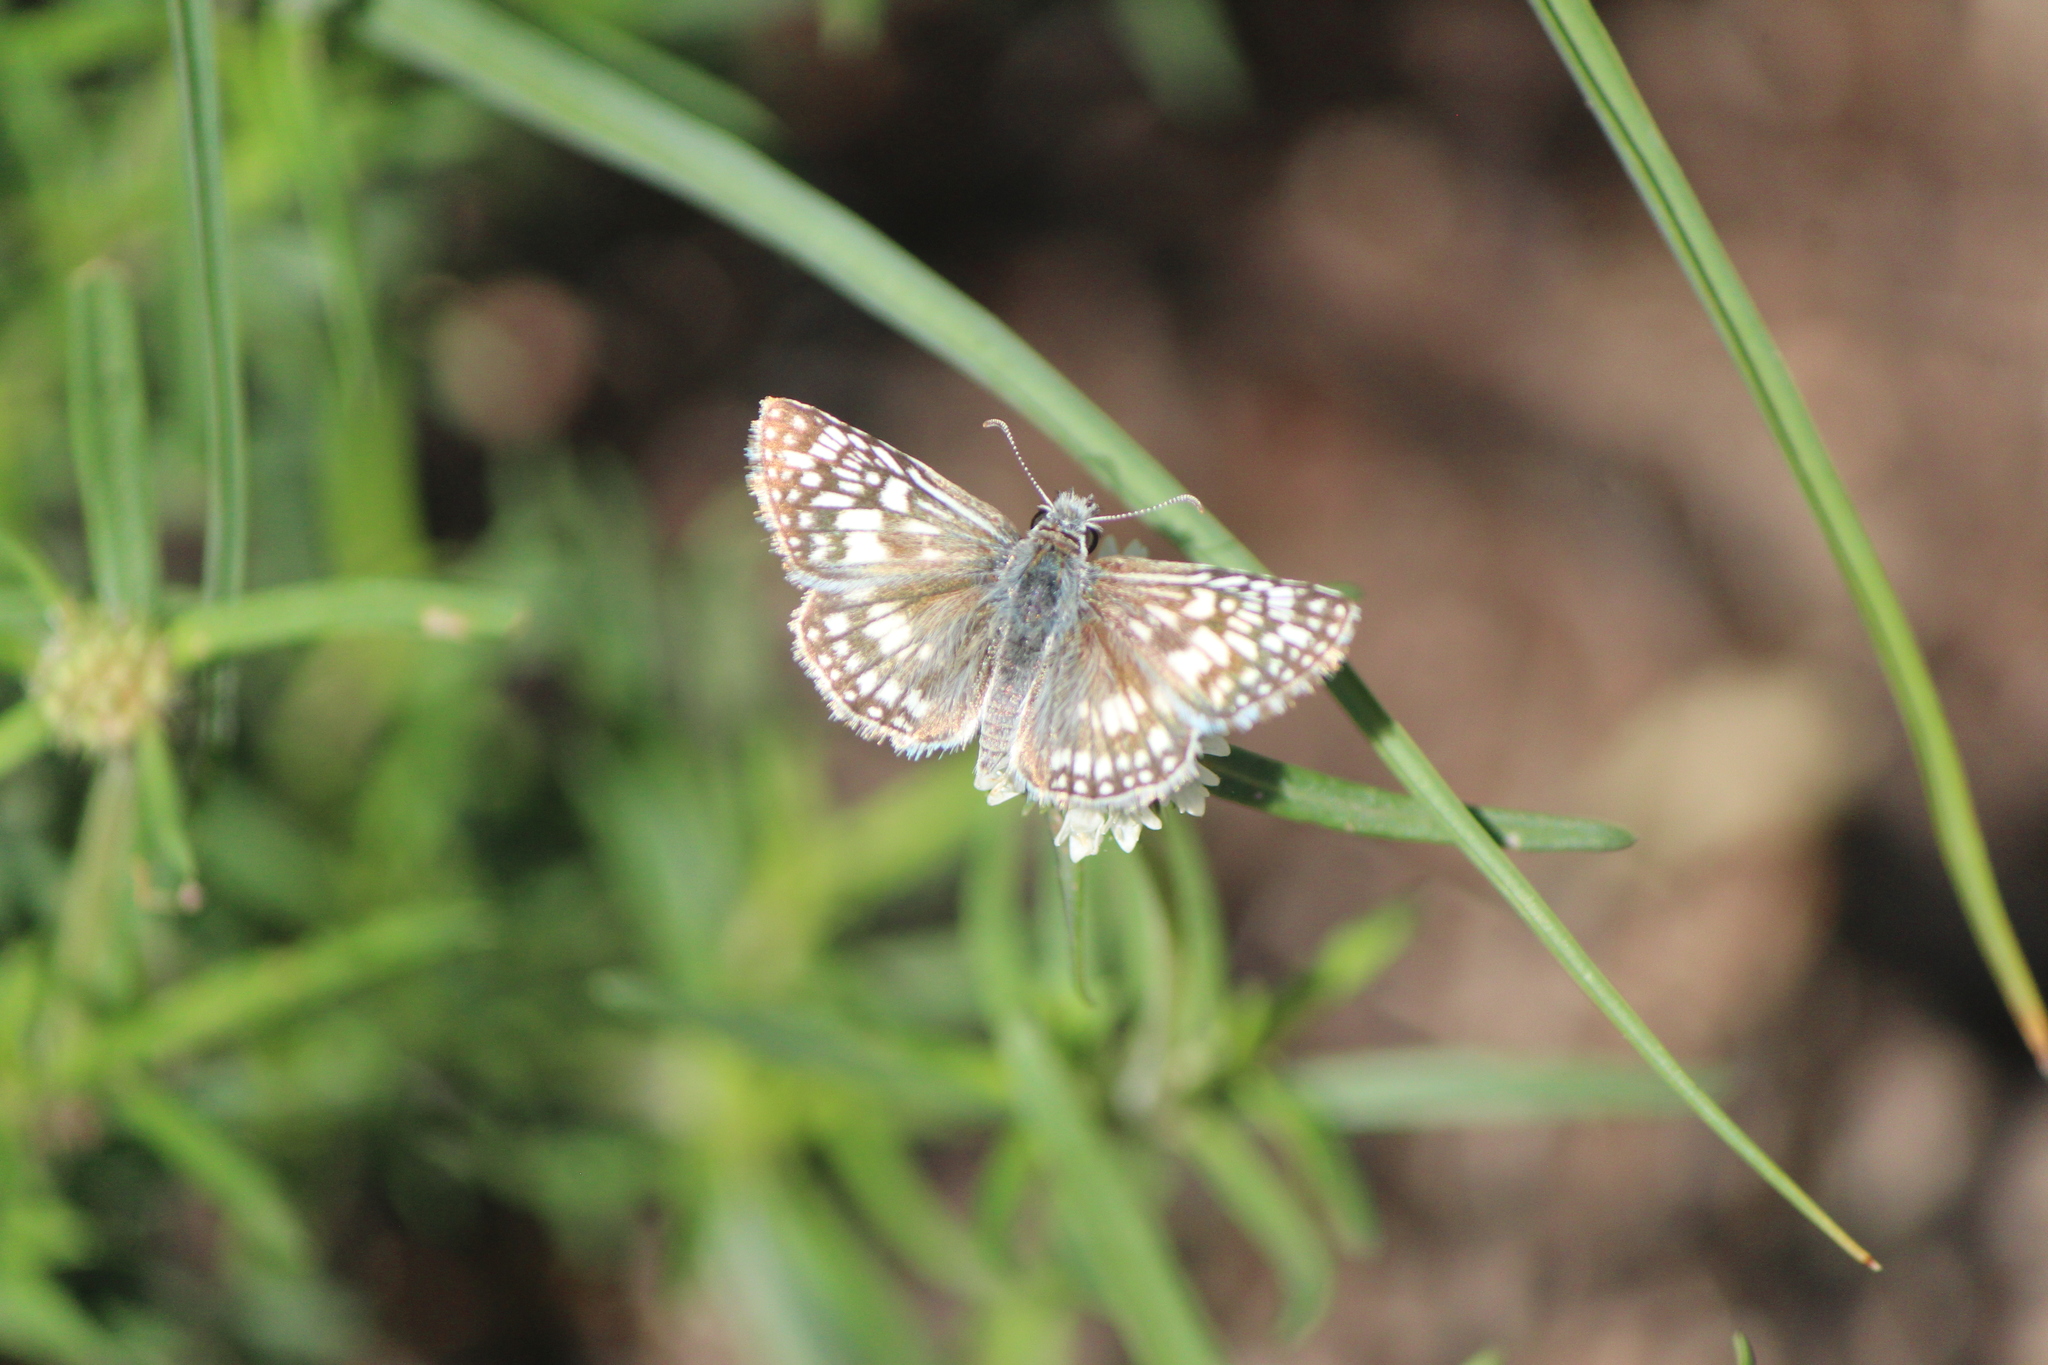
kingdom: Animalia
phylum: Arthropoda
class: Insecta
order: Lepidoptera
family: Hesperiidae
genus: Burnsius
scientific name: Burnsius philetas
